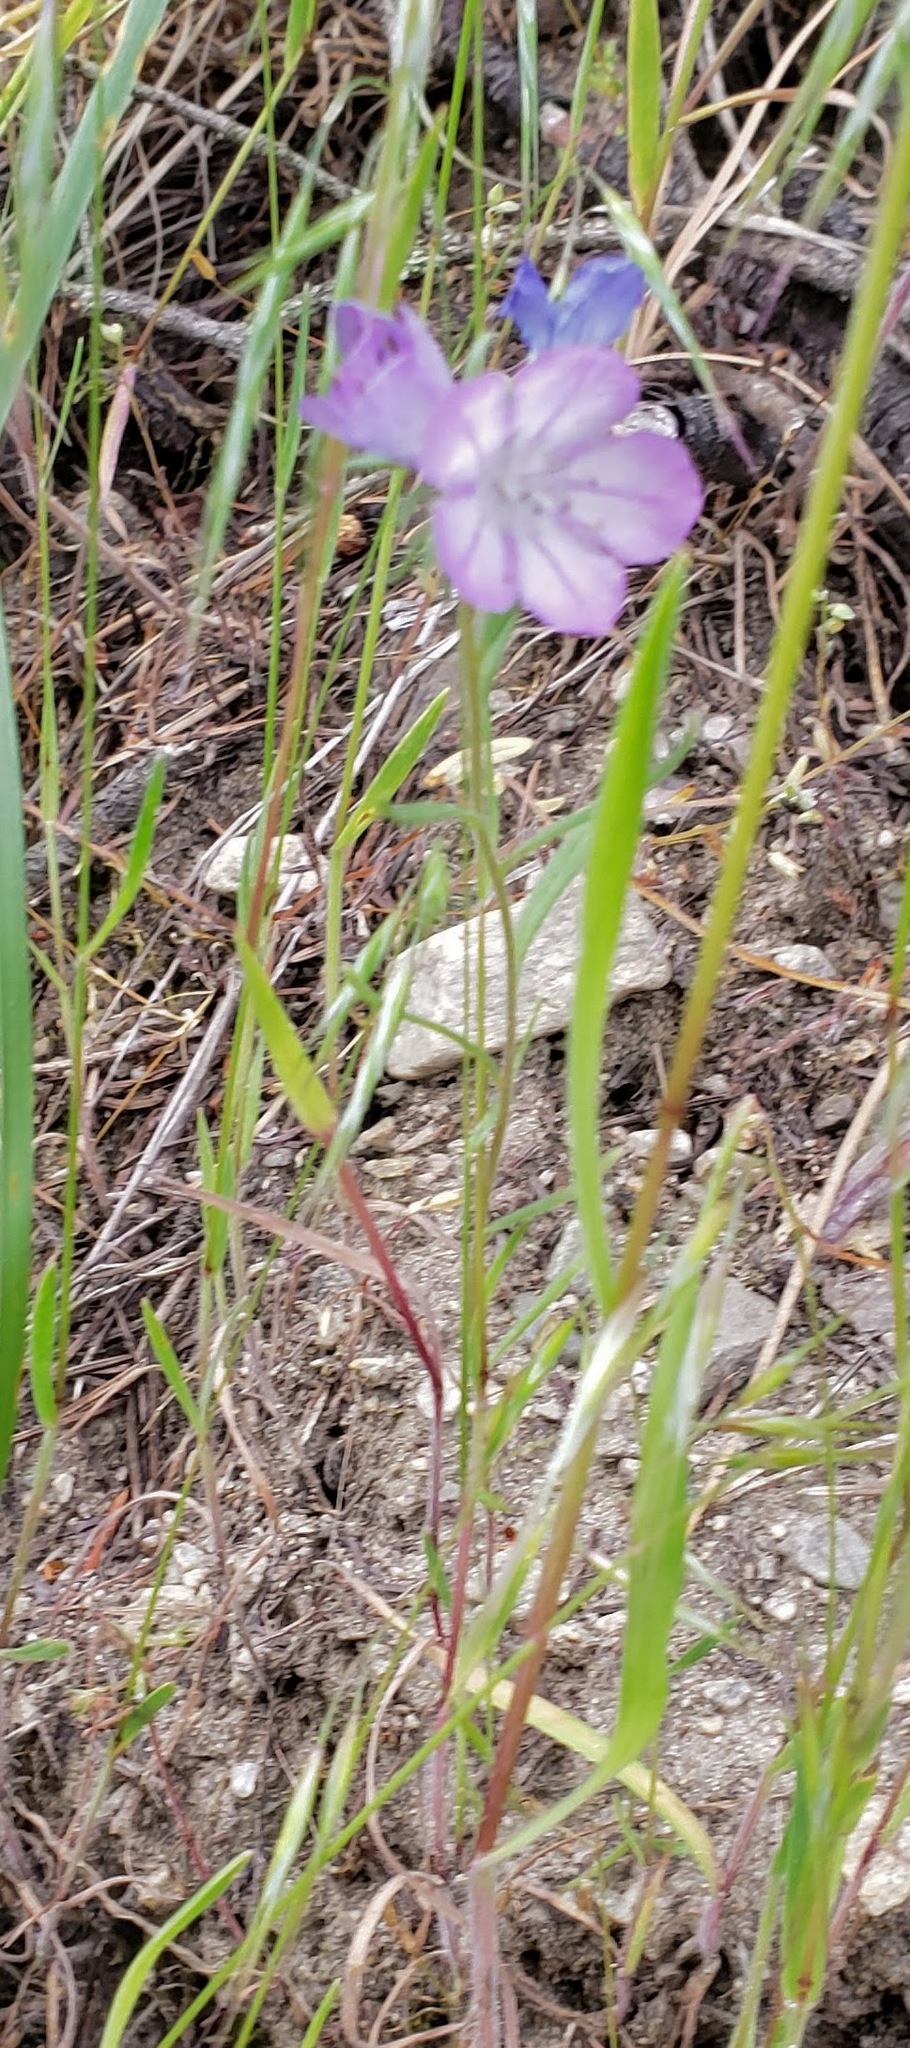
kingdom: Plantae
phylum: Tracheophyta
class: Magnoliopsida
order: Boraginales
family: Hydrophyllaceae
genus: Phacelia
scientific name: Phacelia linearis
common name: Linear-leaved phacelia
